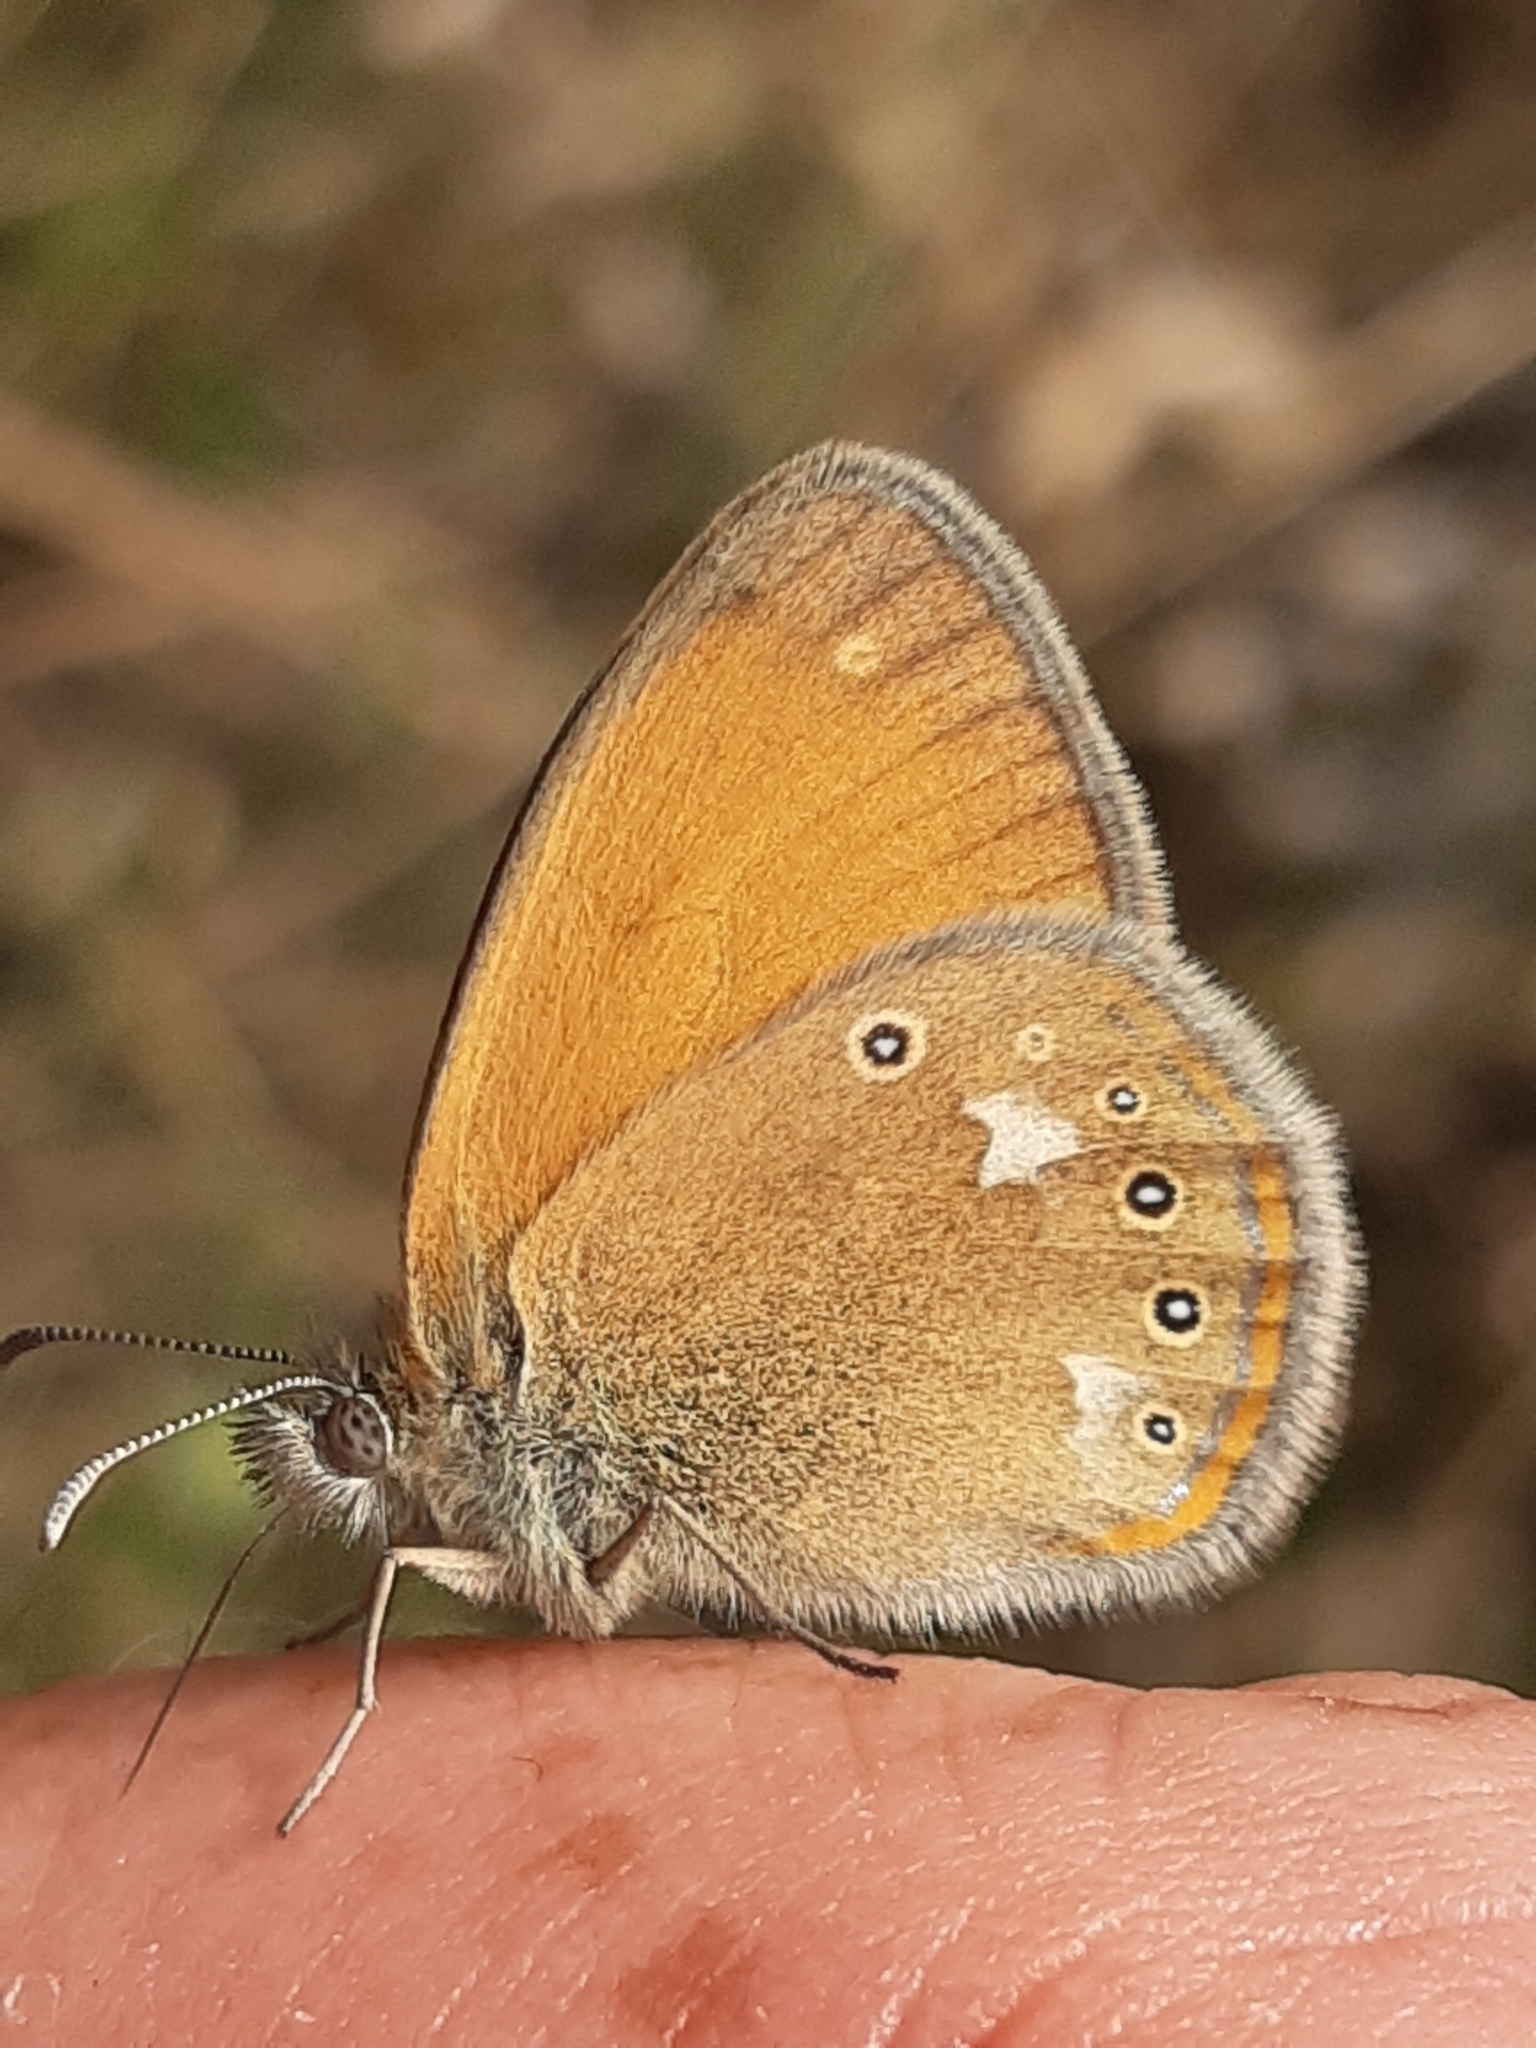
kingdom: Animalia
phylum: Arthropoda
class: Insecta
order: Lepidoptera
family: Nymphalidae
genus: Coenonympha
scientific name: Coenonympha iphis
